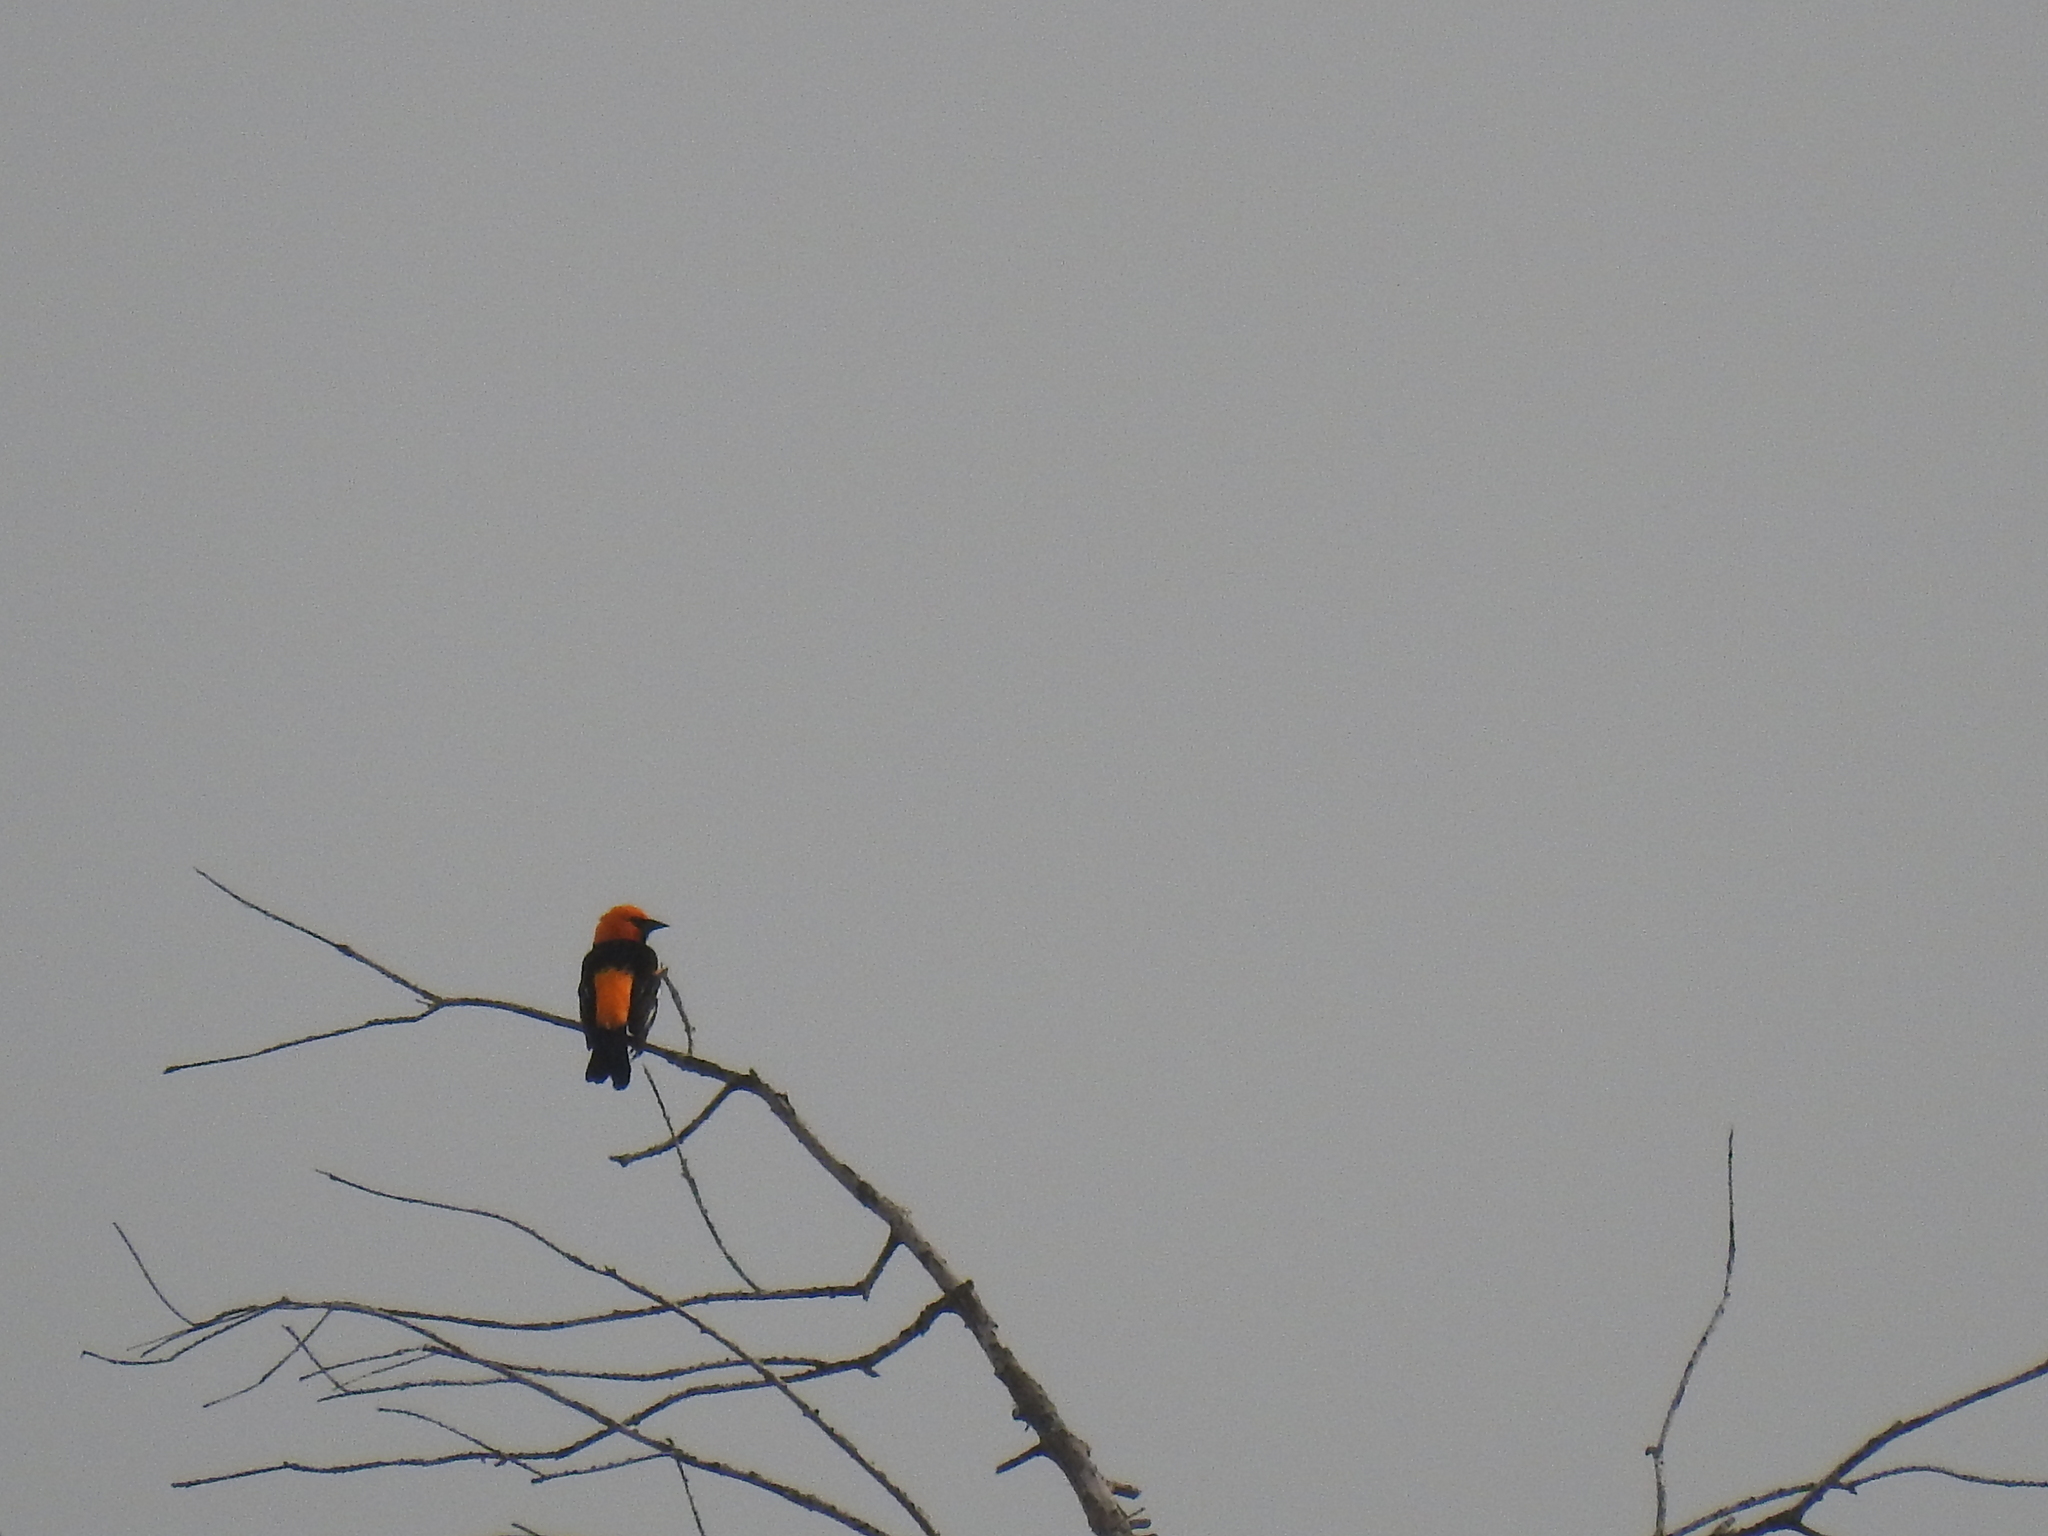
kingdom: Animalia
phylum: Chordata
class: Aves
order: Passeriformes
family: Icteridae
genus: Icterus
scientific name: Icterus gularis
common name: Altamira oriole
